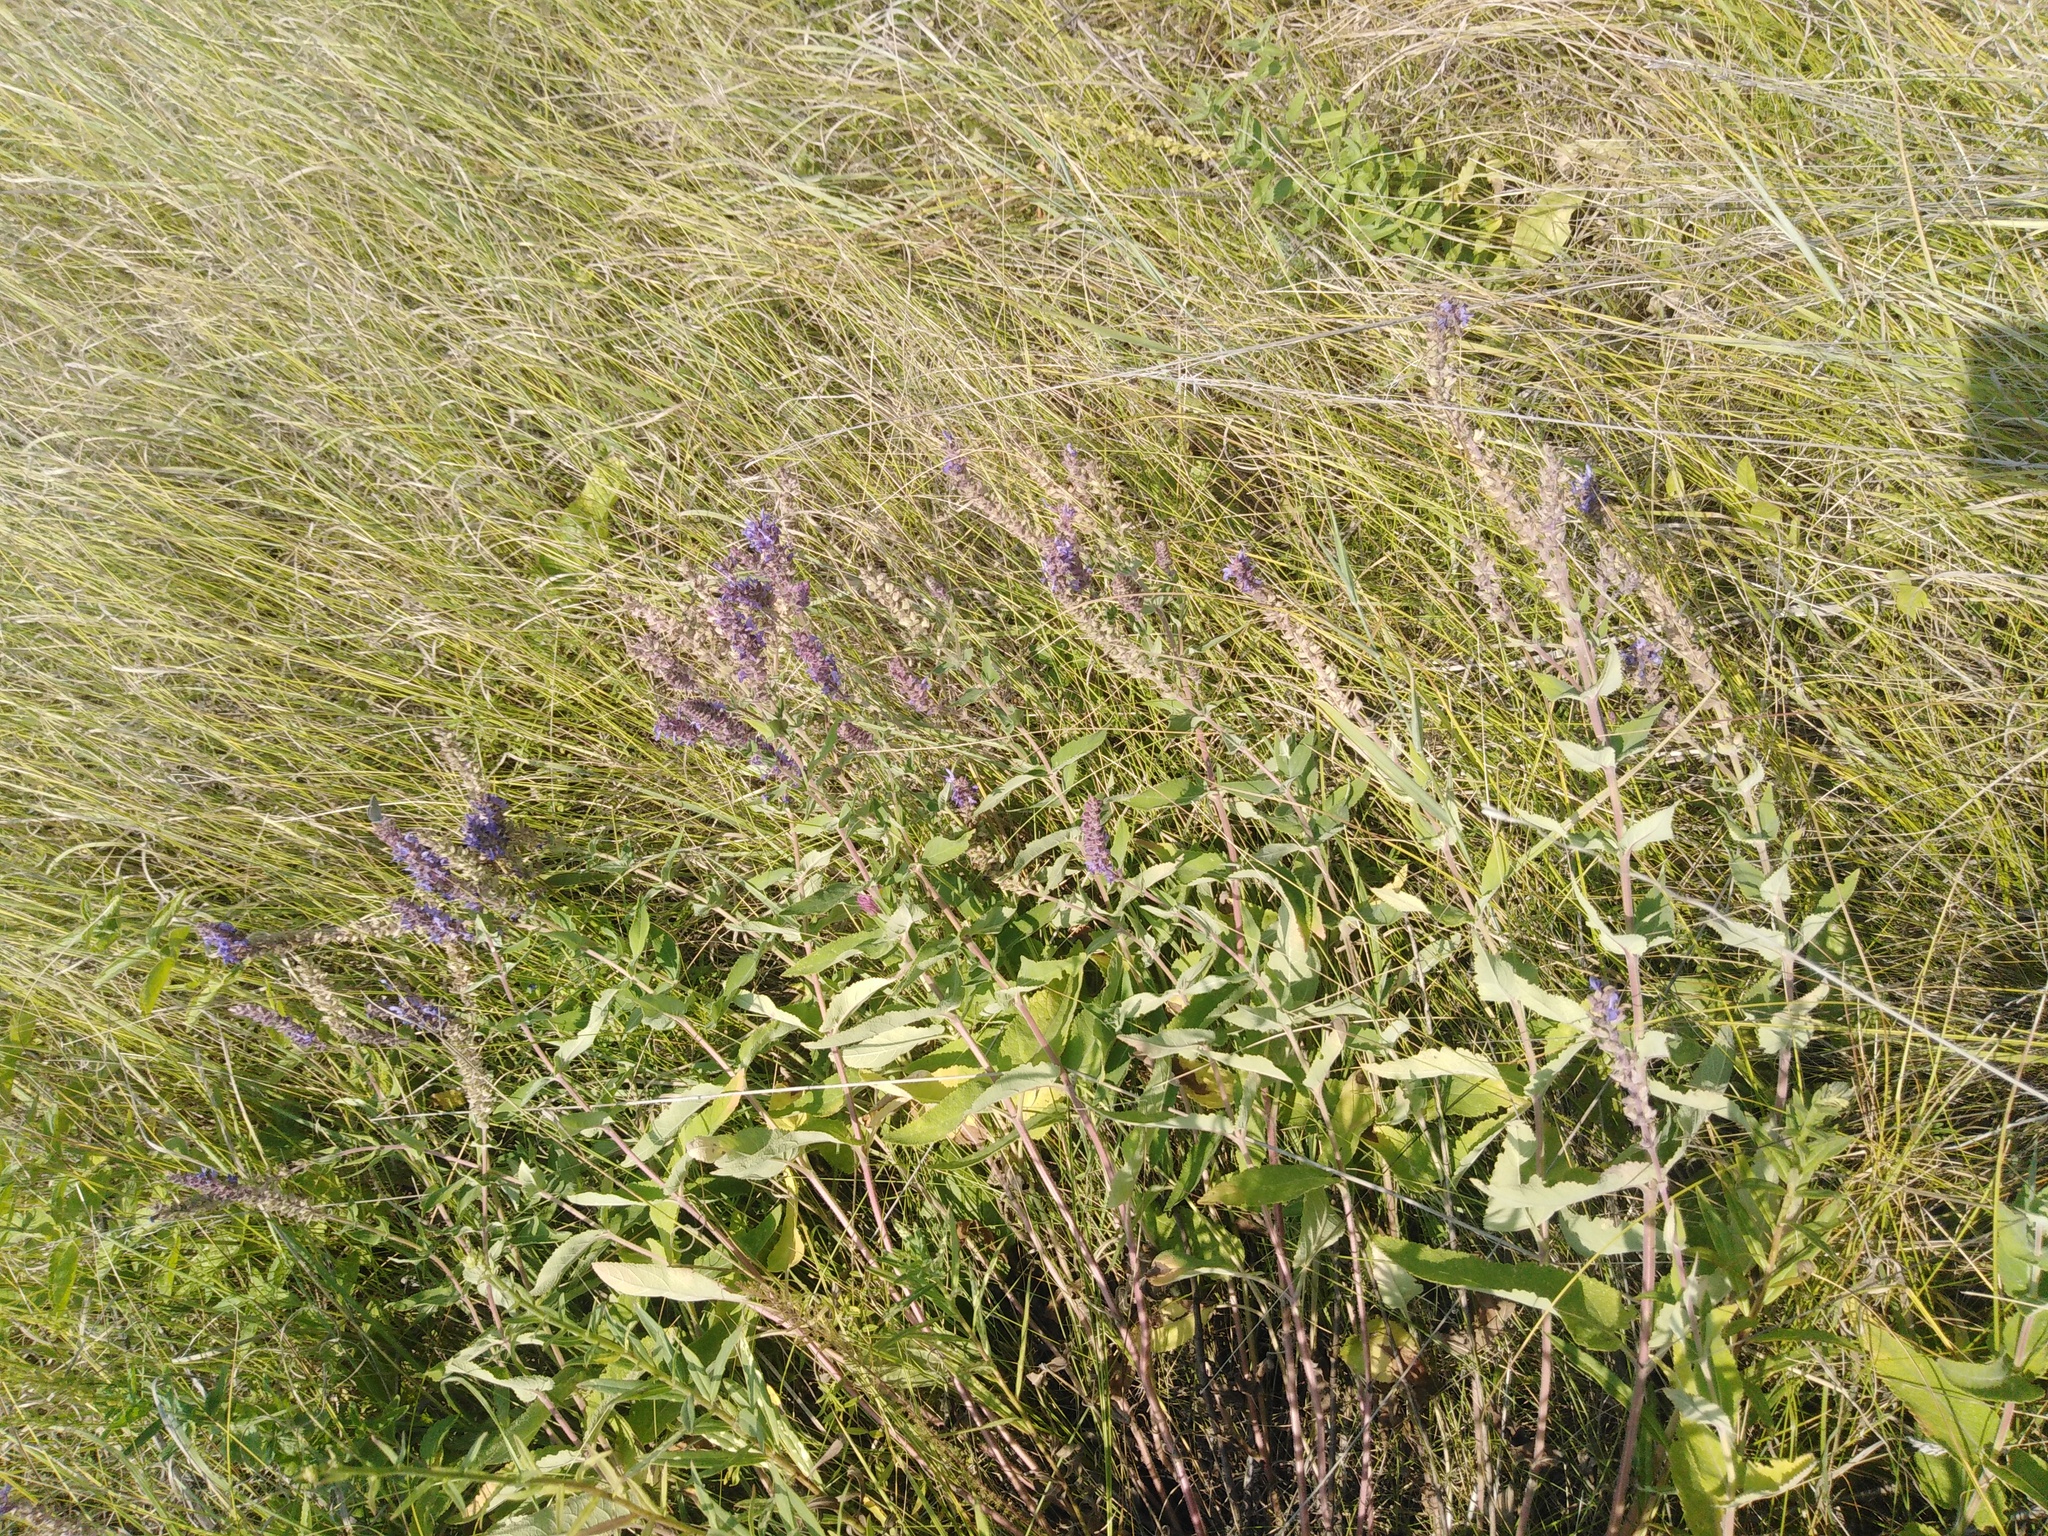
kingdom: Plantae
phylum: Tracheophyta
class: Magnoliopsida
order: Lamiales
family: Lamiaceae
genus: Salvia
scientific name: Salvia nemorosa
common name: Balkan clary
